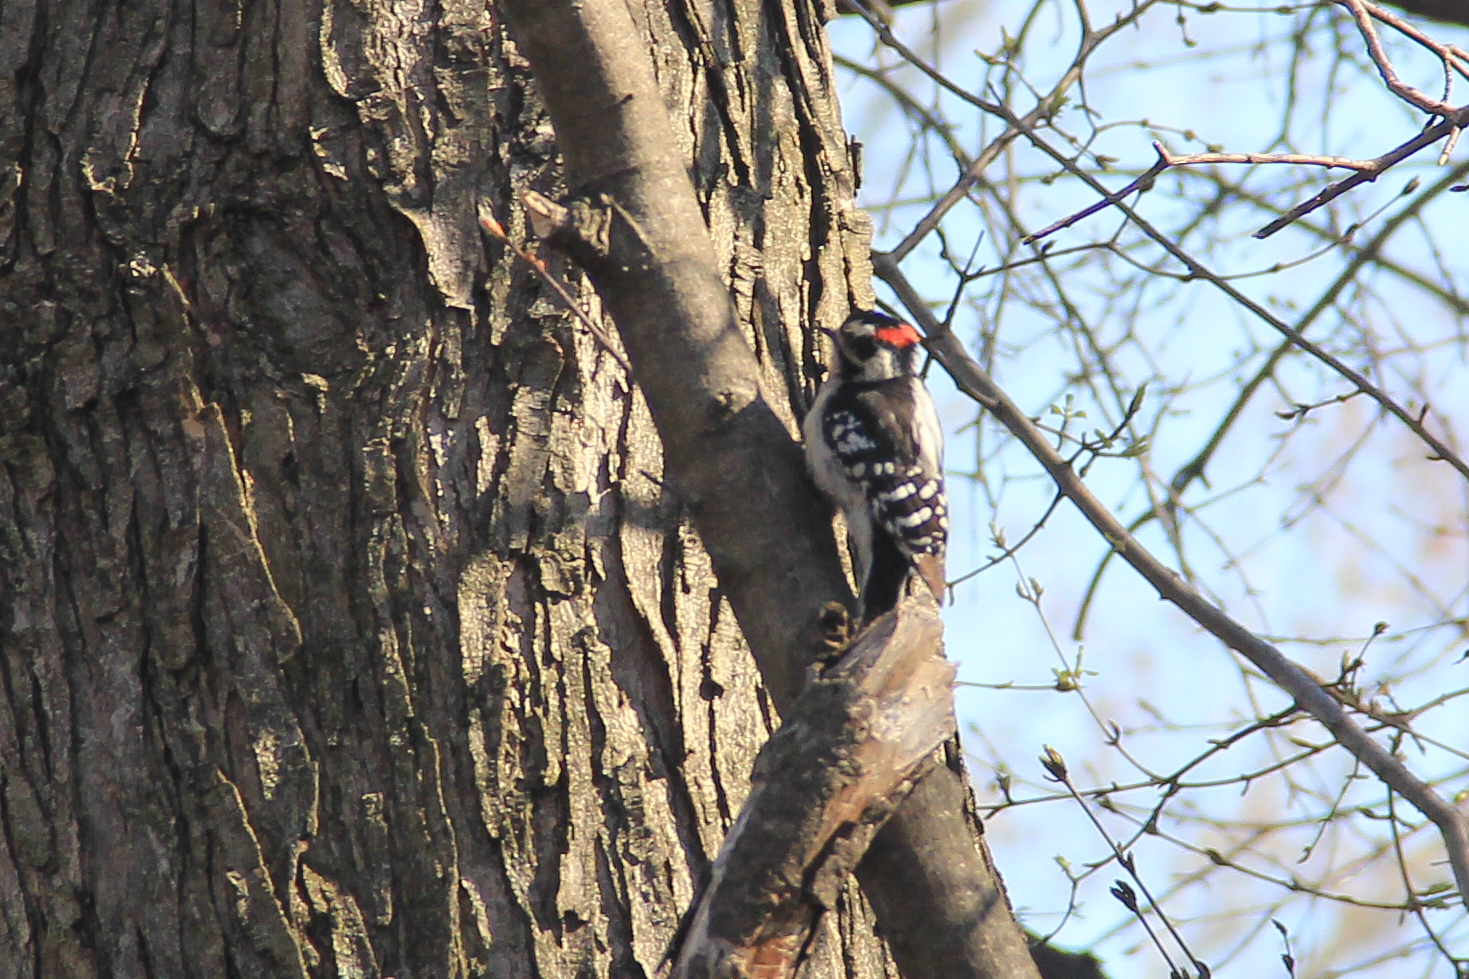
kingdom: Animalia
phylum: Chordata
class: Aves
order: Piciformes
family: Picidae
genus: Dryobates
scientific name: Dryobates pubescens
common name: Downy woodpecker
